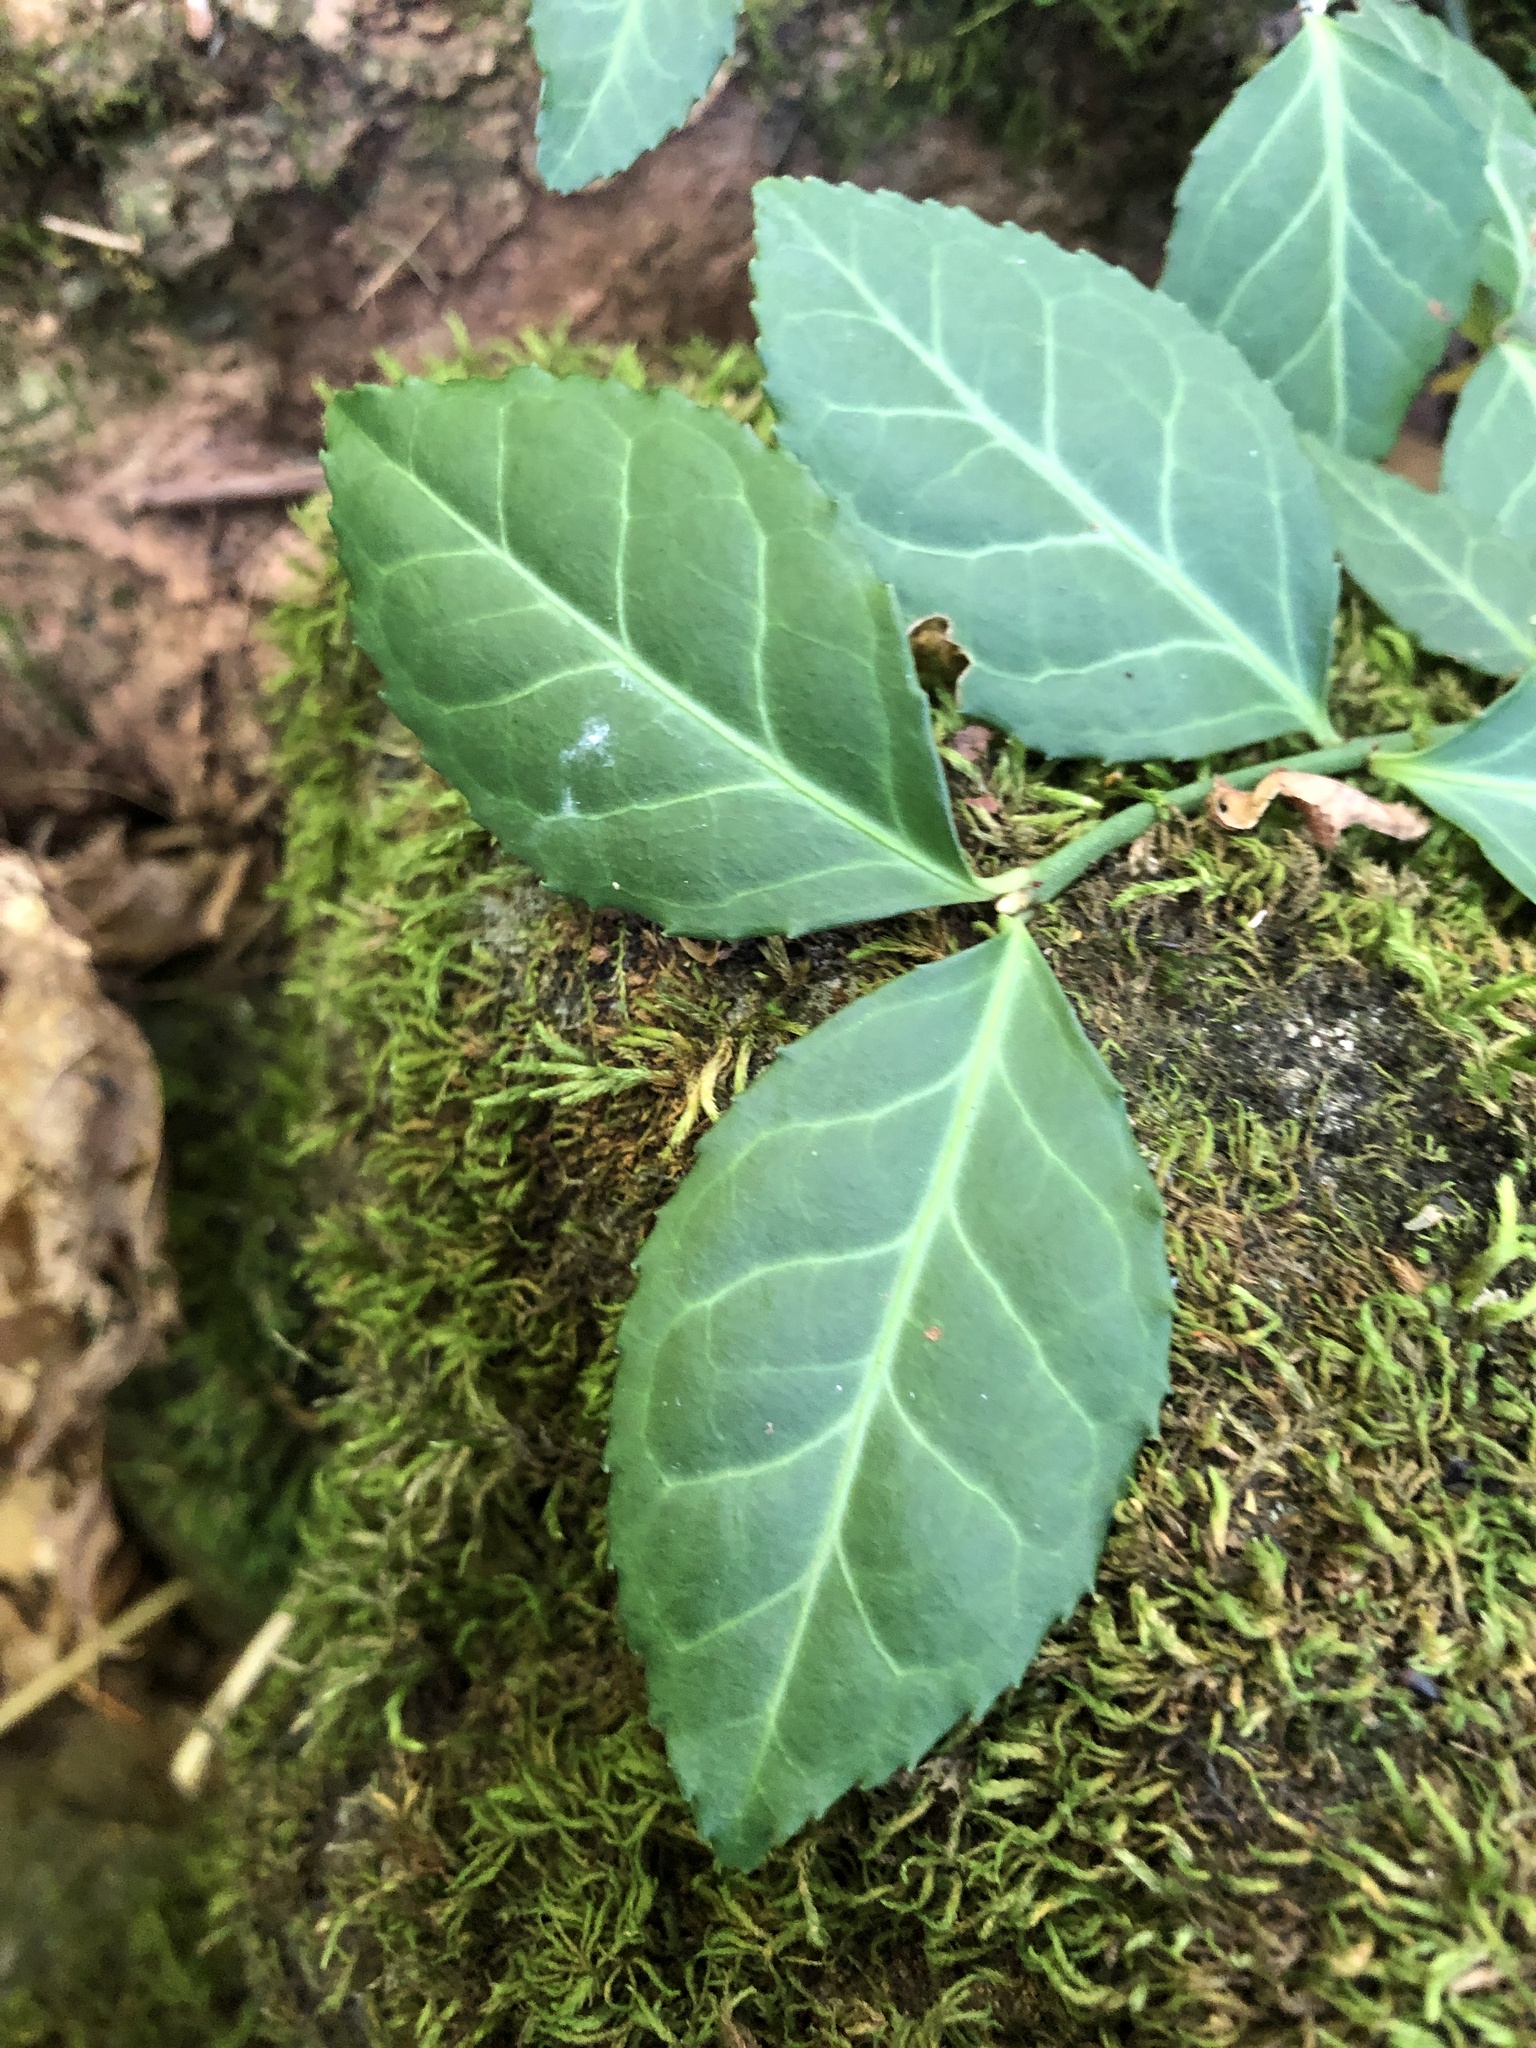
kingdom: Plantae
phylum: Tracheophyta
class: Magnoliopsida
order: Celastrales
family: Celastraceae
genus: Euonymus
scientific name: Euonymus fortunei
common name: Climbing euonymus
